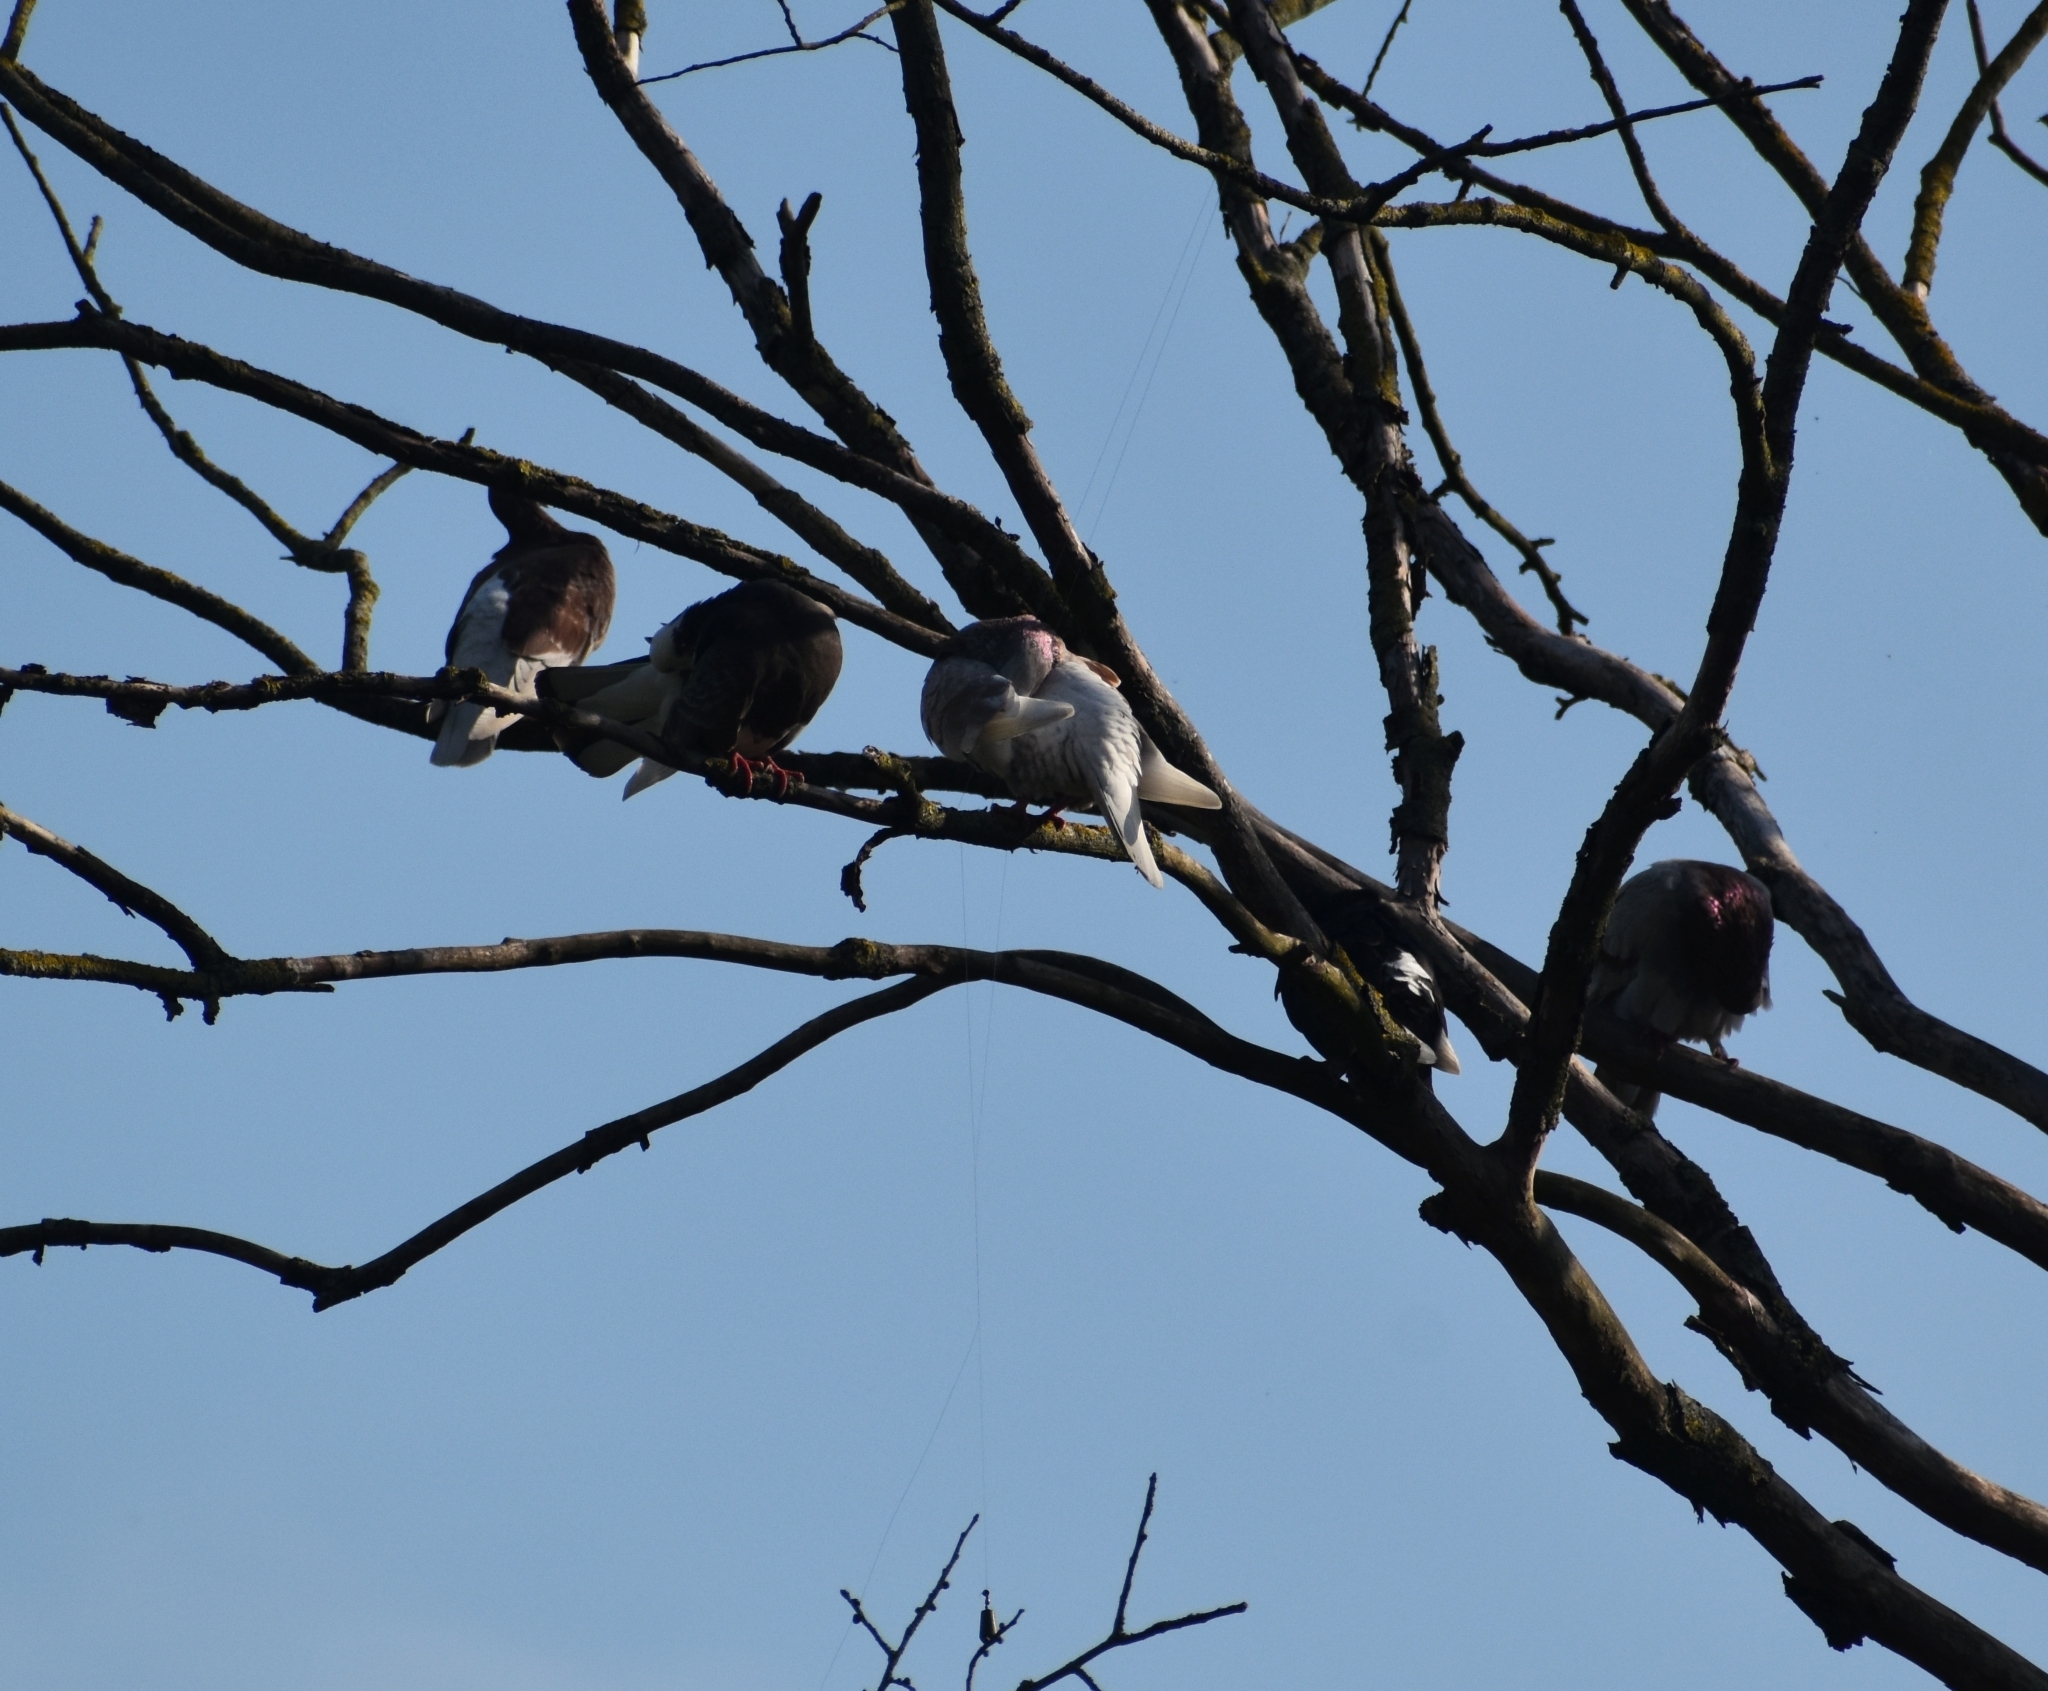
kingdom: Animalia
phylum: Chordata
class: Aves
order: Columbiformes
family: Columbidae
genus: Columba
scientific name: Columba livia
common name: Rock pigeon
